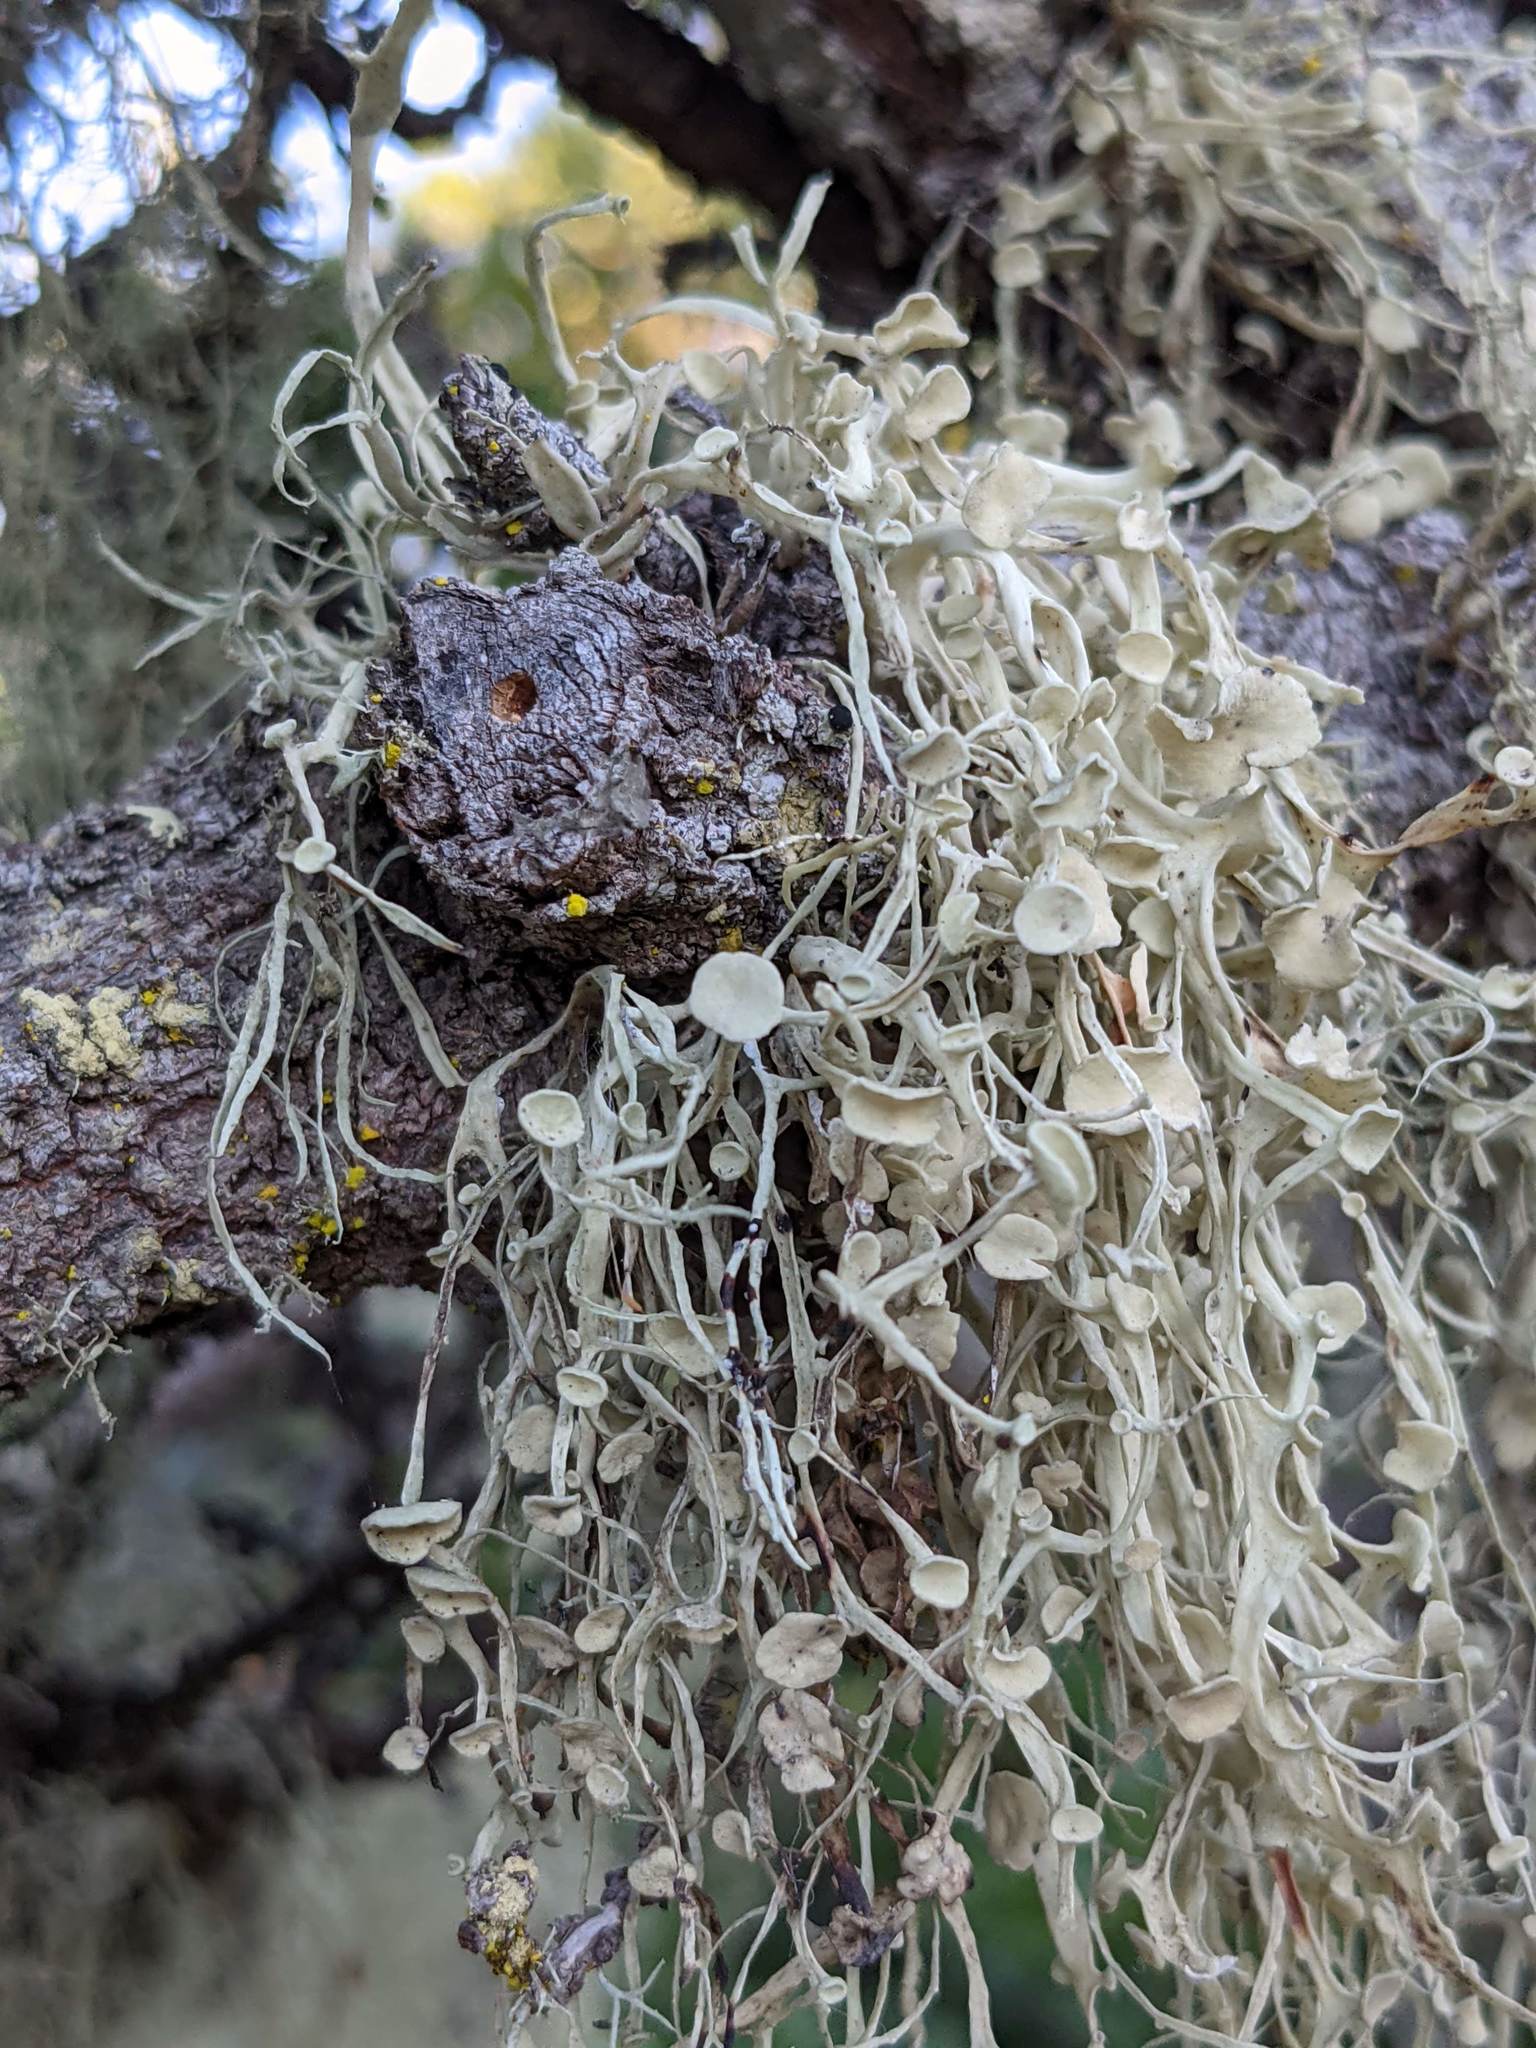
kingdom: Fungi
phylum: Ascomycota
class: Lecanoromycetes
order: Lecanorales
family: Ramalinaceae
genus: Ramalina
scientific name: Ramalina leptocarpha
